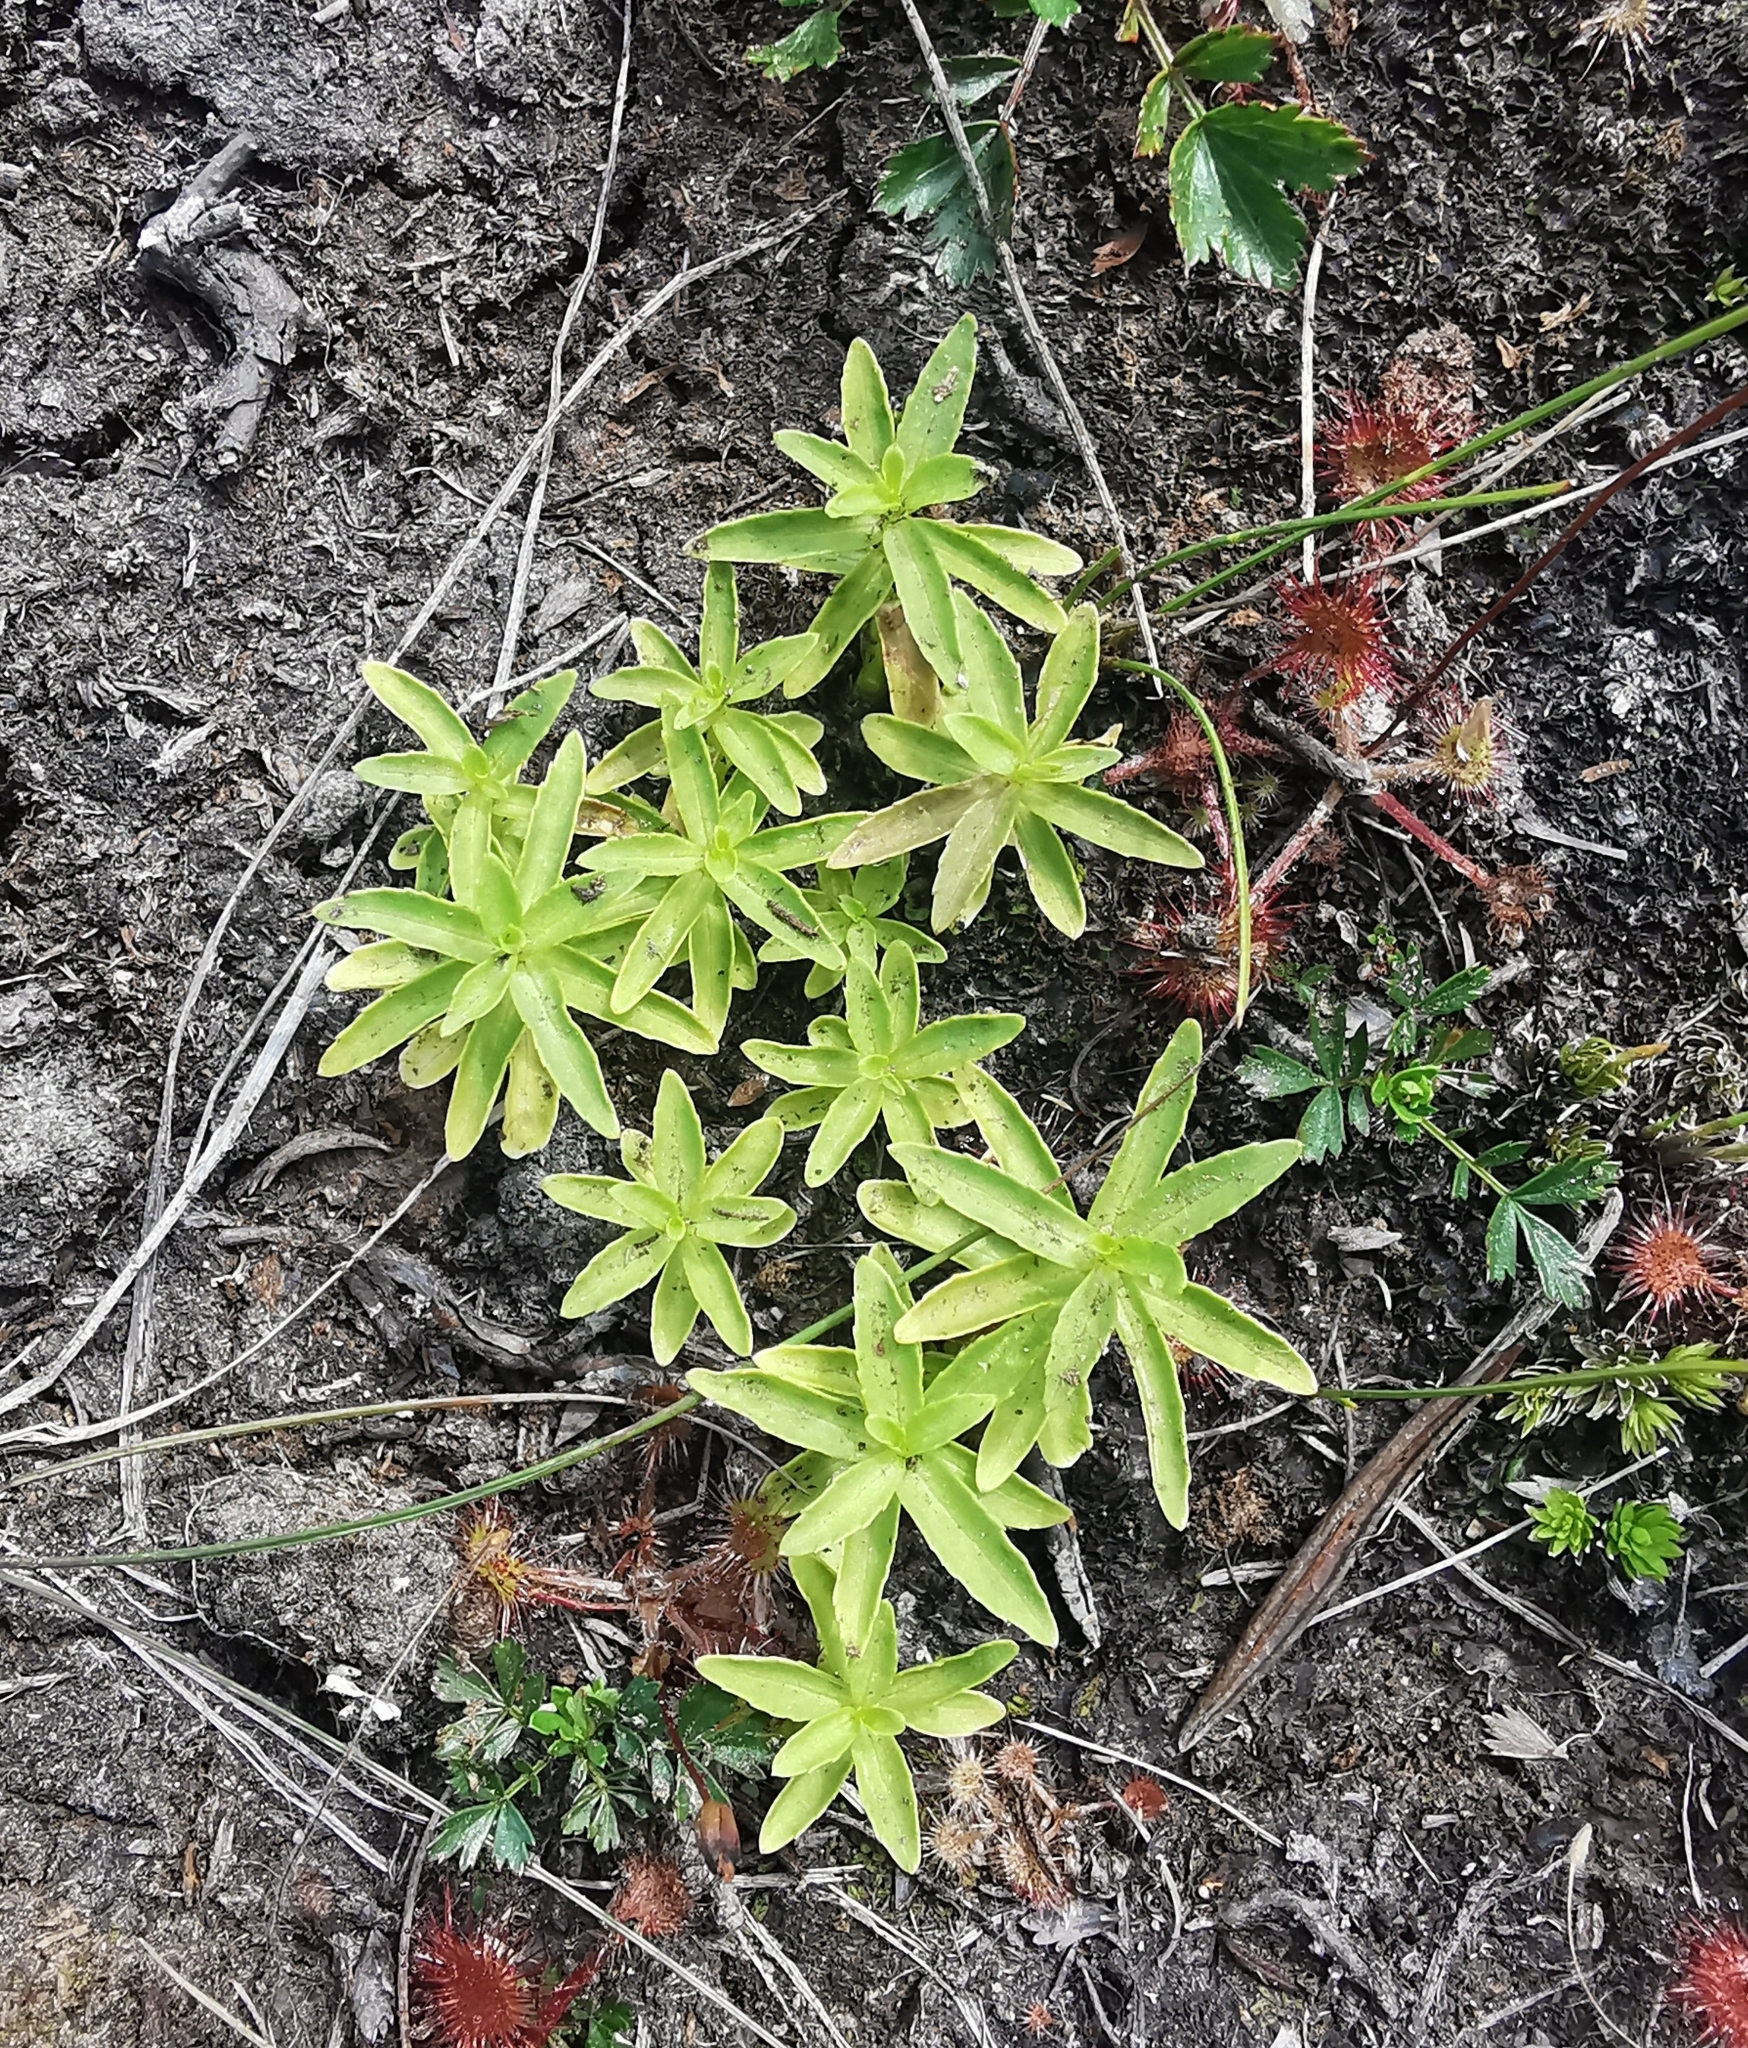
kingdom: Plantae
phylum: Tracheophyta
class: Magnoliopsida
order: Saxifragales
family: Crassulaceae
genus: Phedimus
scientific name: Phedimus kamtschaticus
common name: Orange stonecrop
